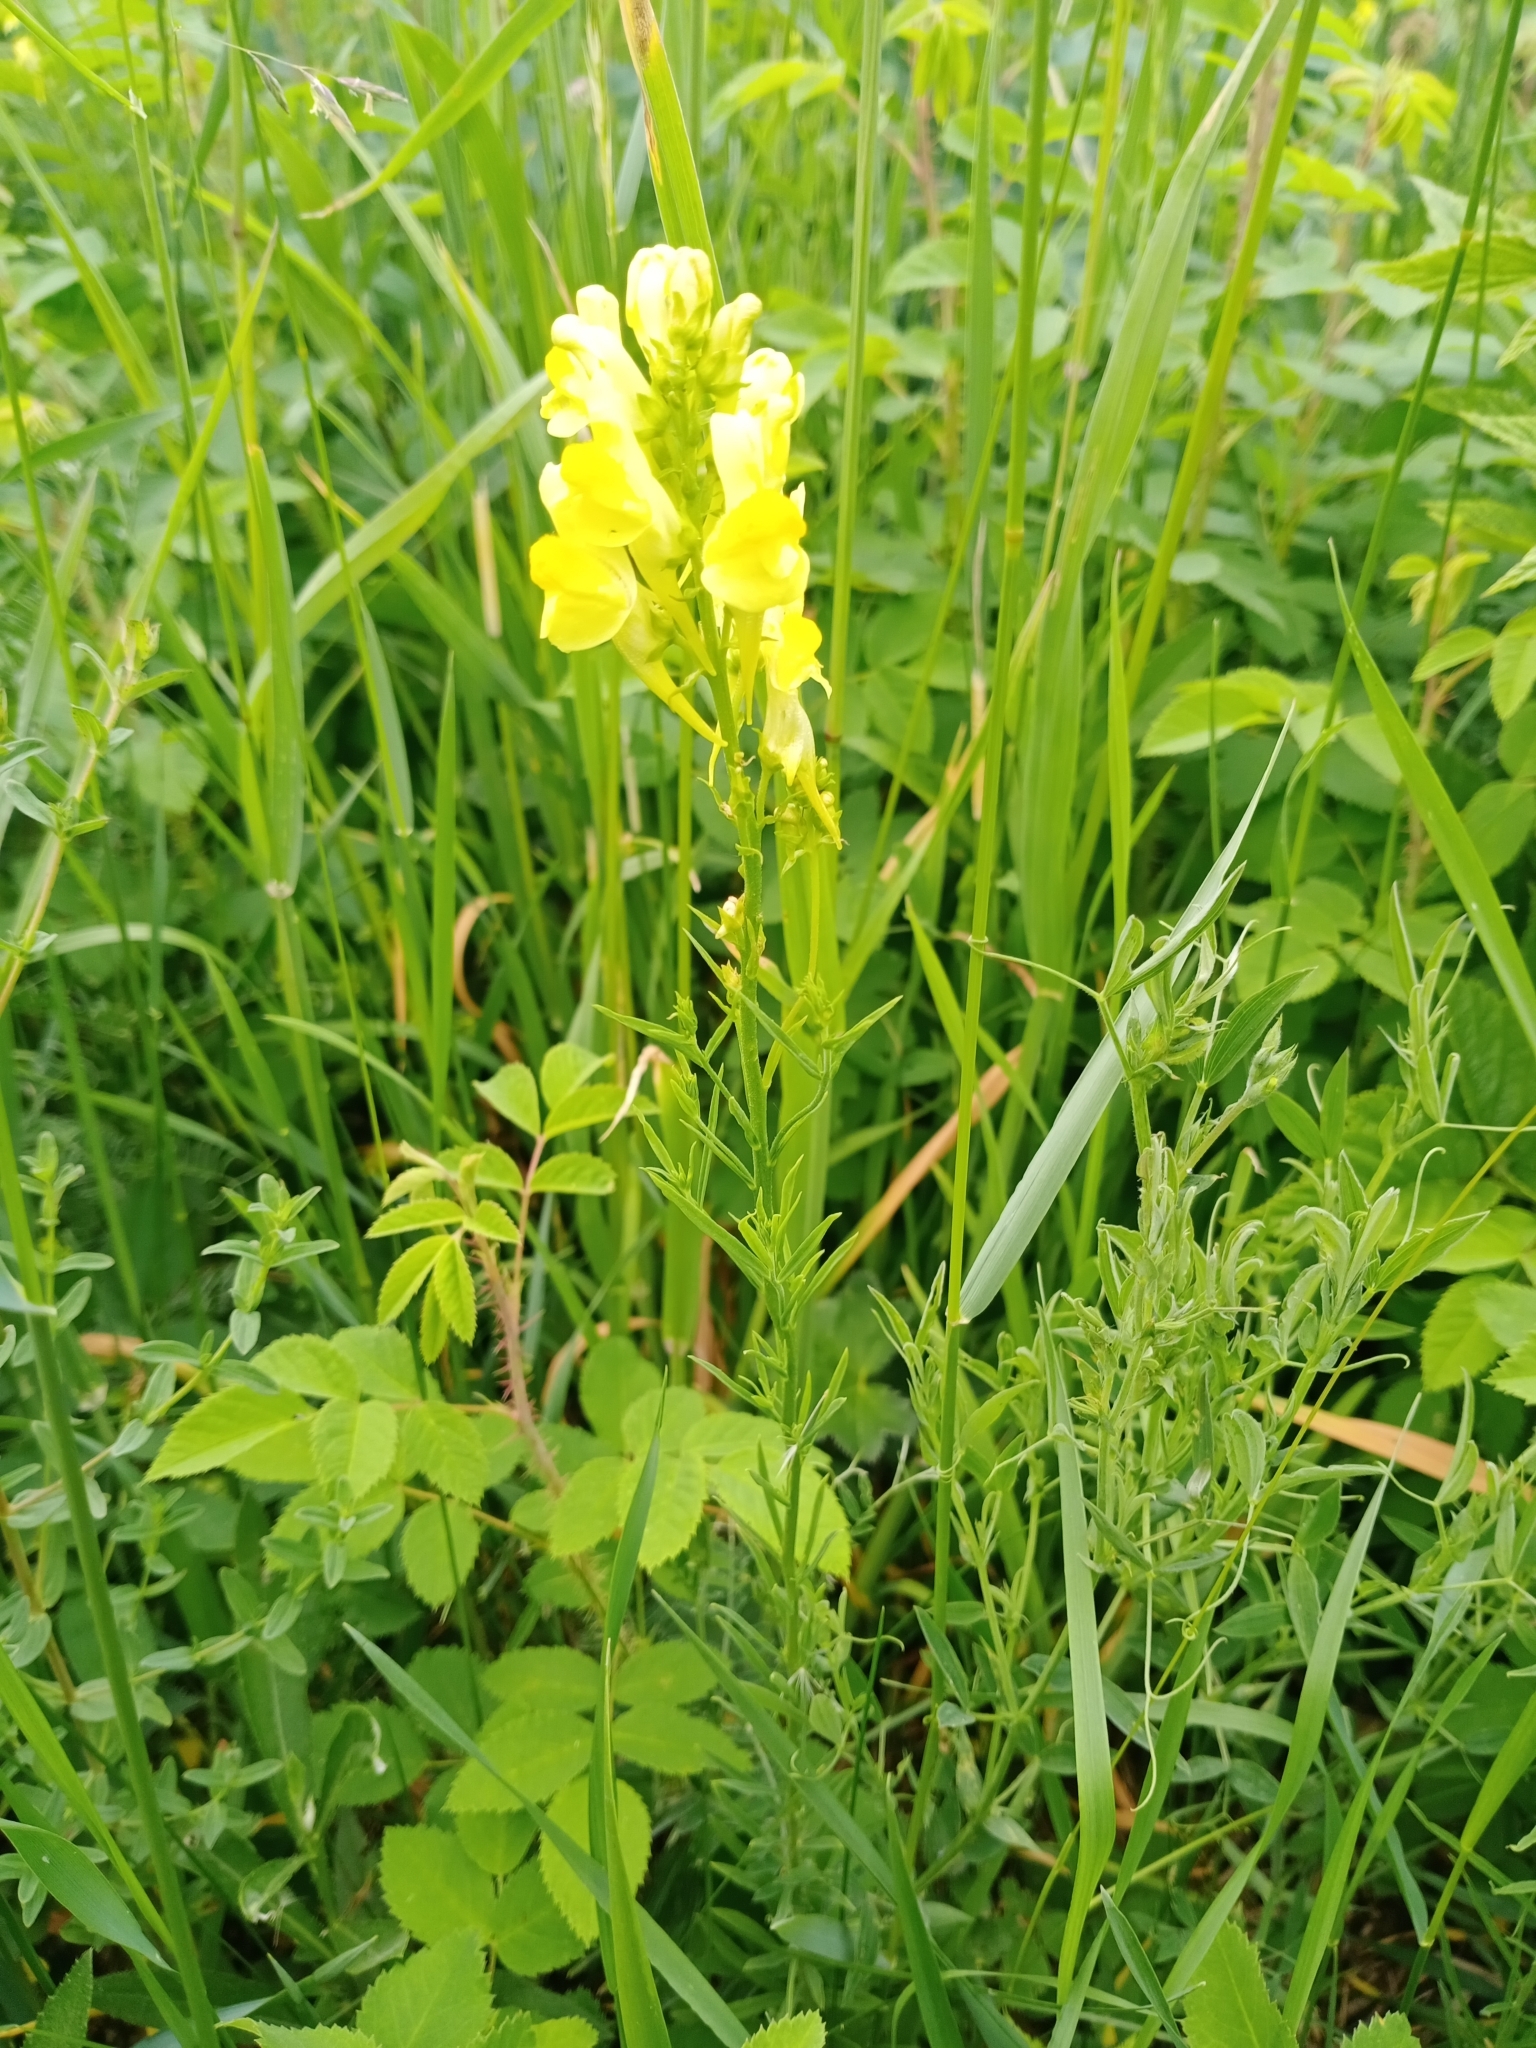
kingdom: Plantae
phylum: Tracheophyta
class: Magnoliopsida
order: Lamiales
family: Plantaginaceae
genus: Linaria
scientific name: Linaria vulgaris
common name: Butter and eggs
